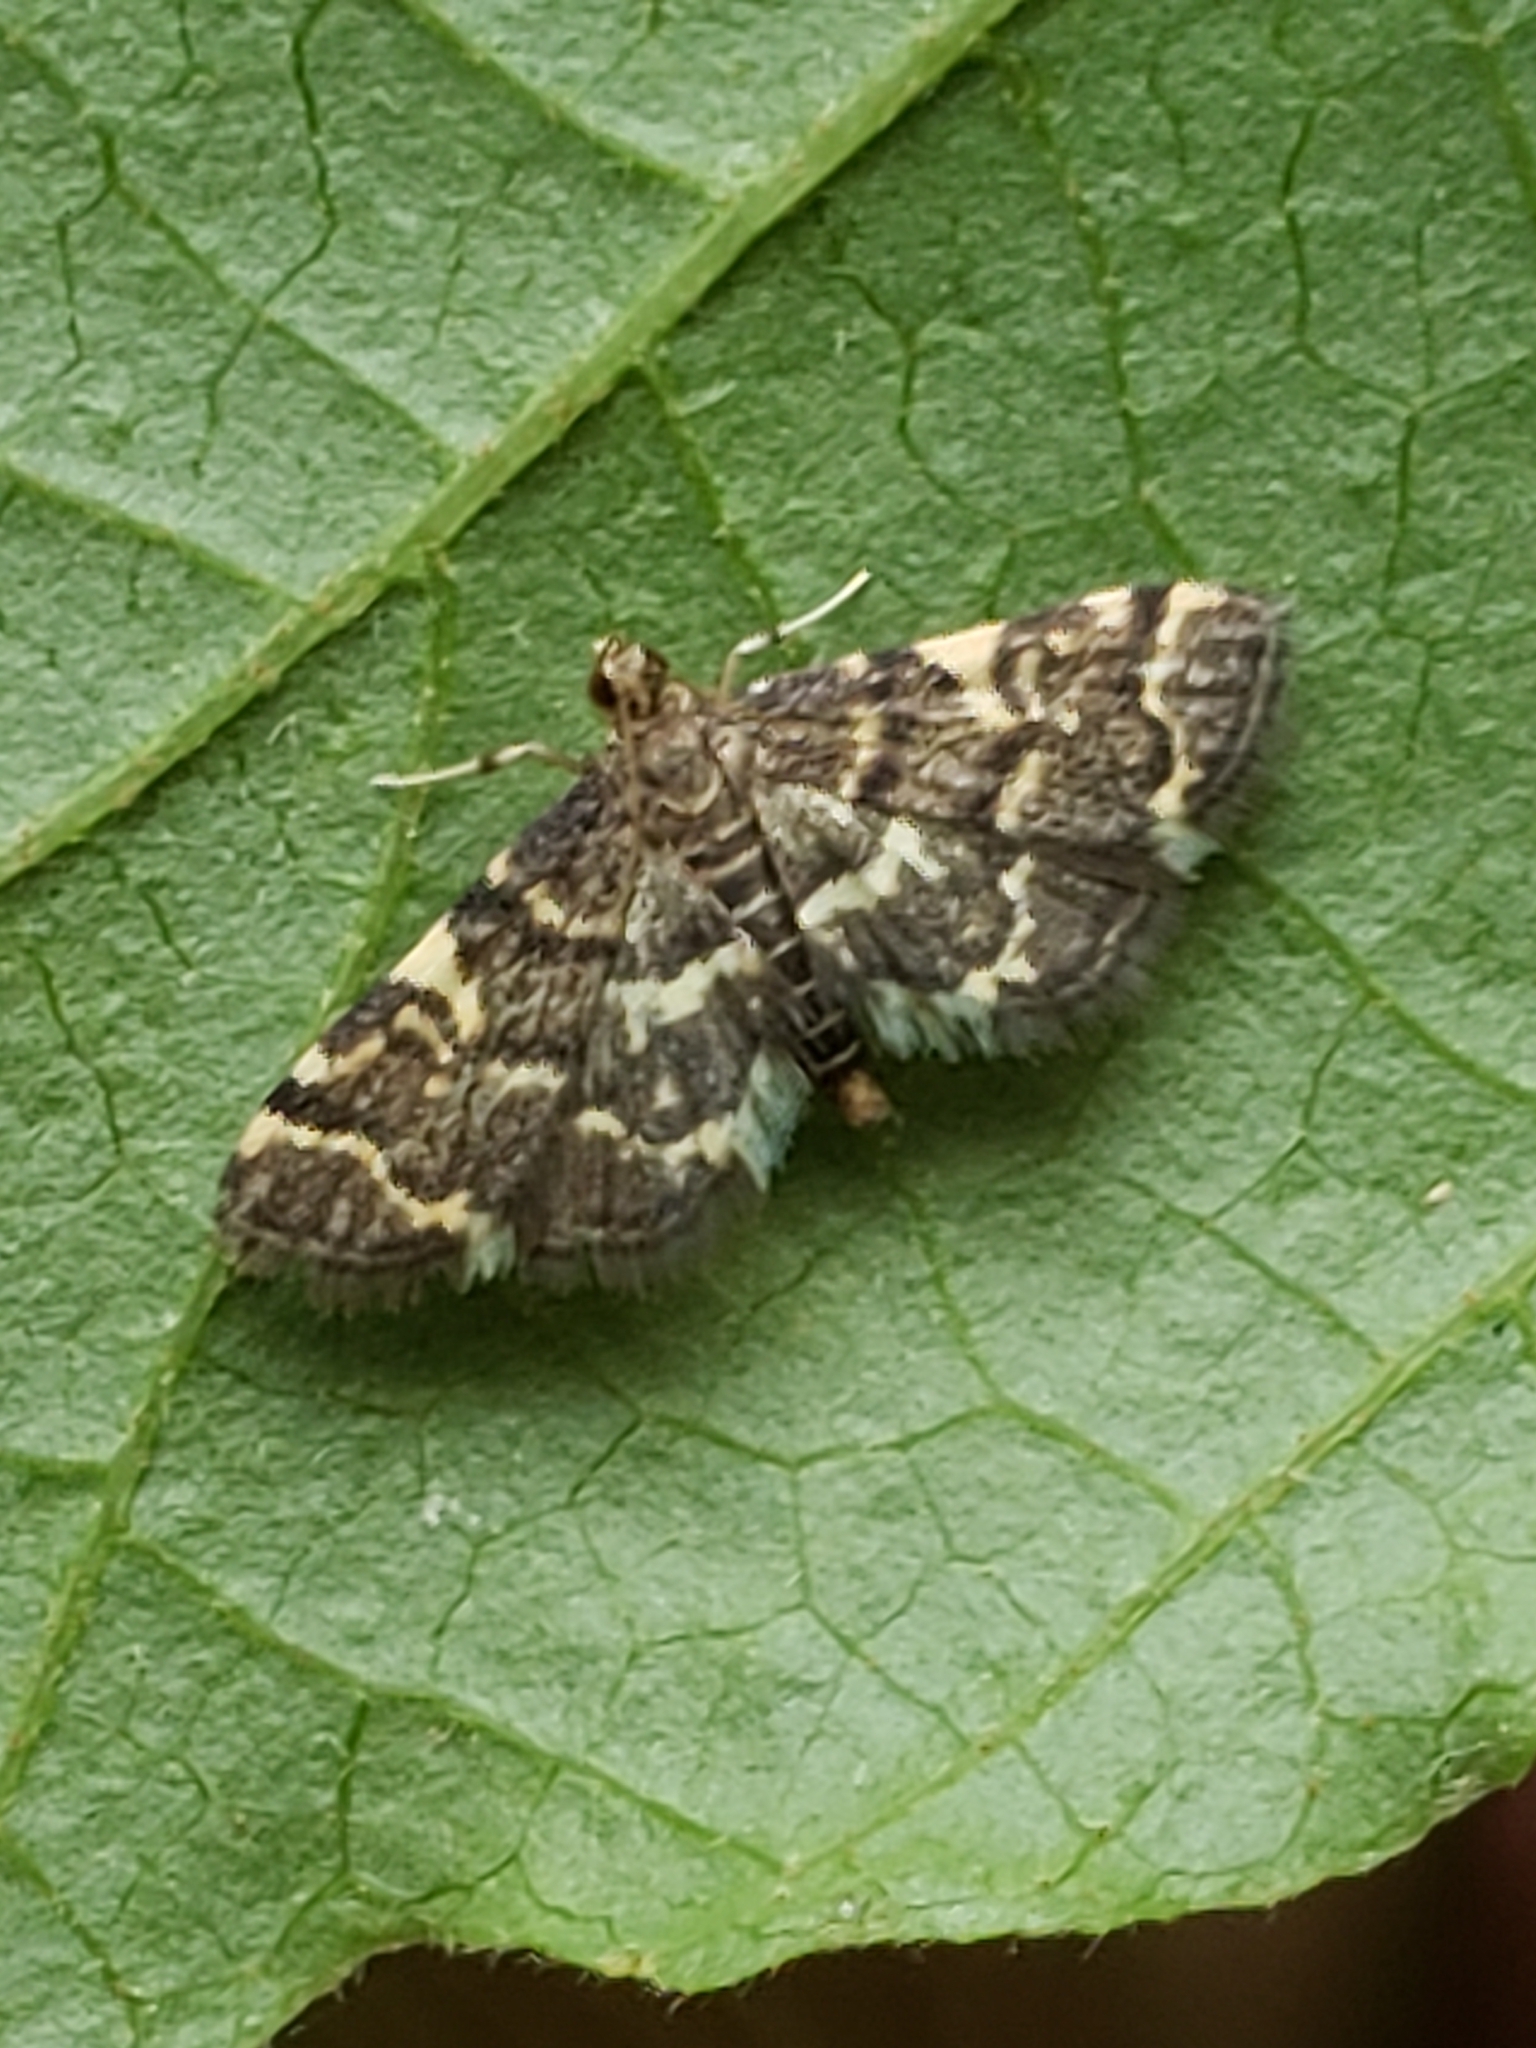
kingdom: Animalia
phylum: Arthropoda
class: Insecta
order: Lepidoptera
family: Crambidae
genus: Anageshna
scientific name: Anageshna primordialis
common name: Yellow-spotted webworm moth
